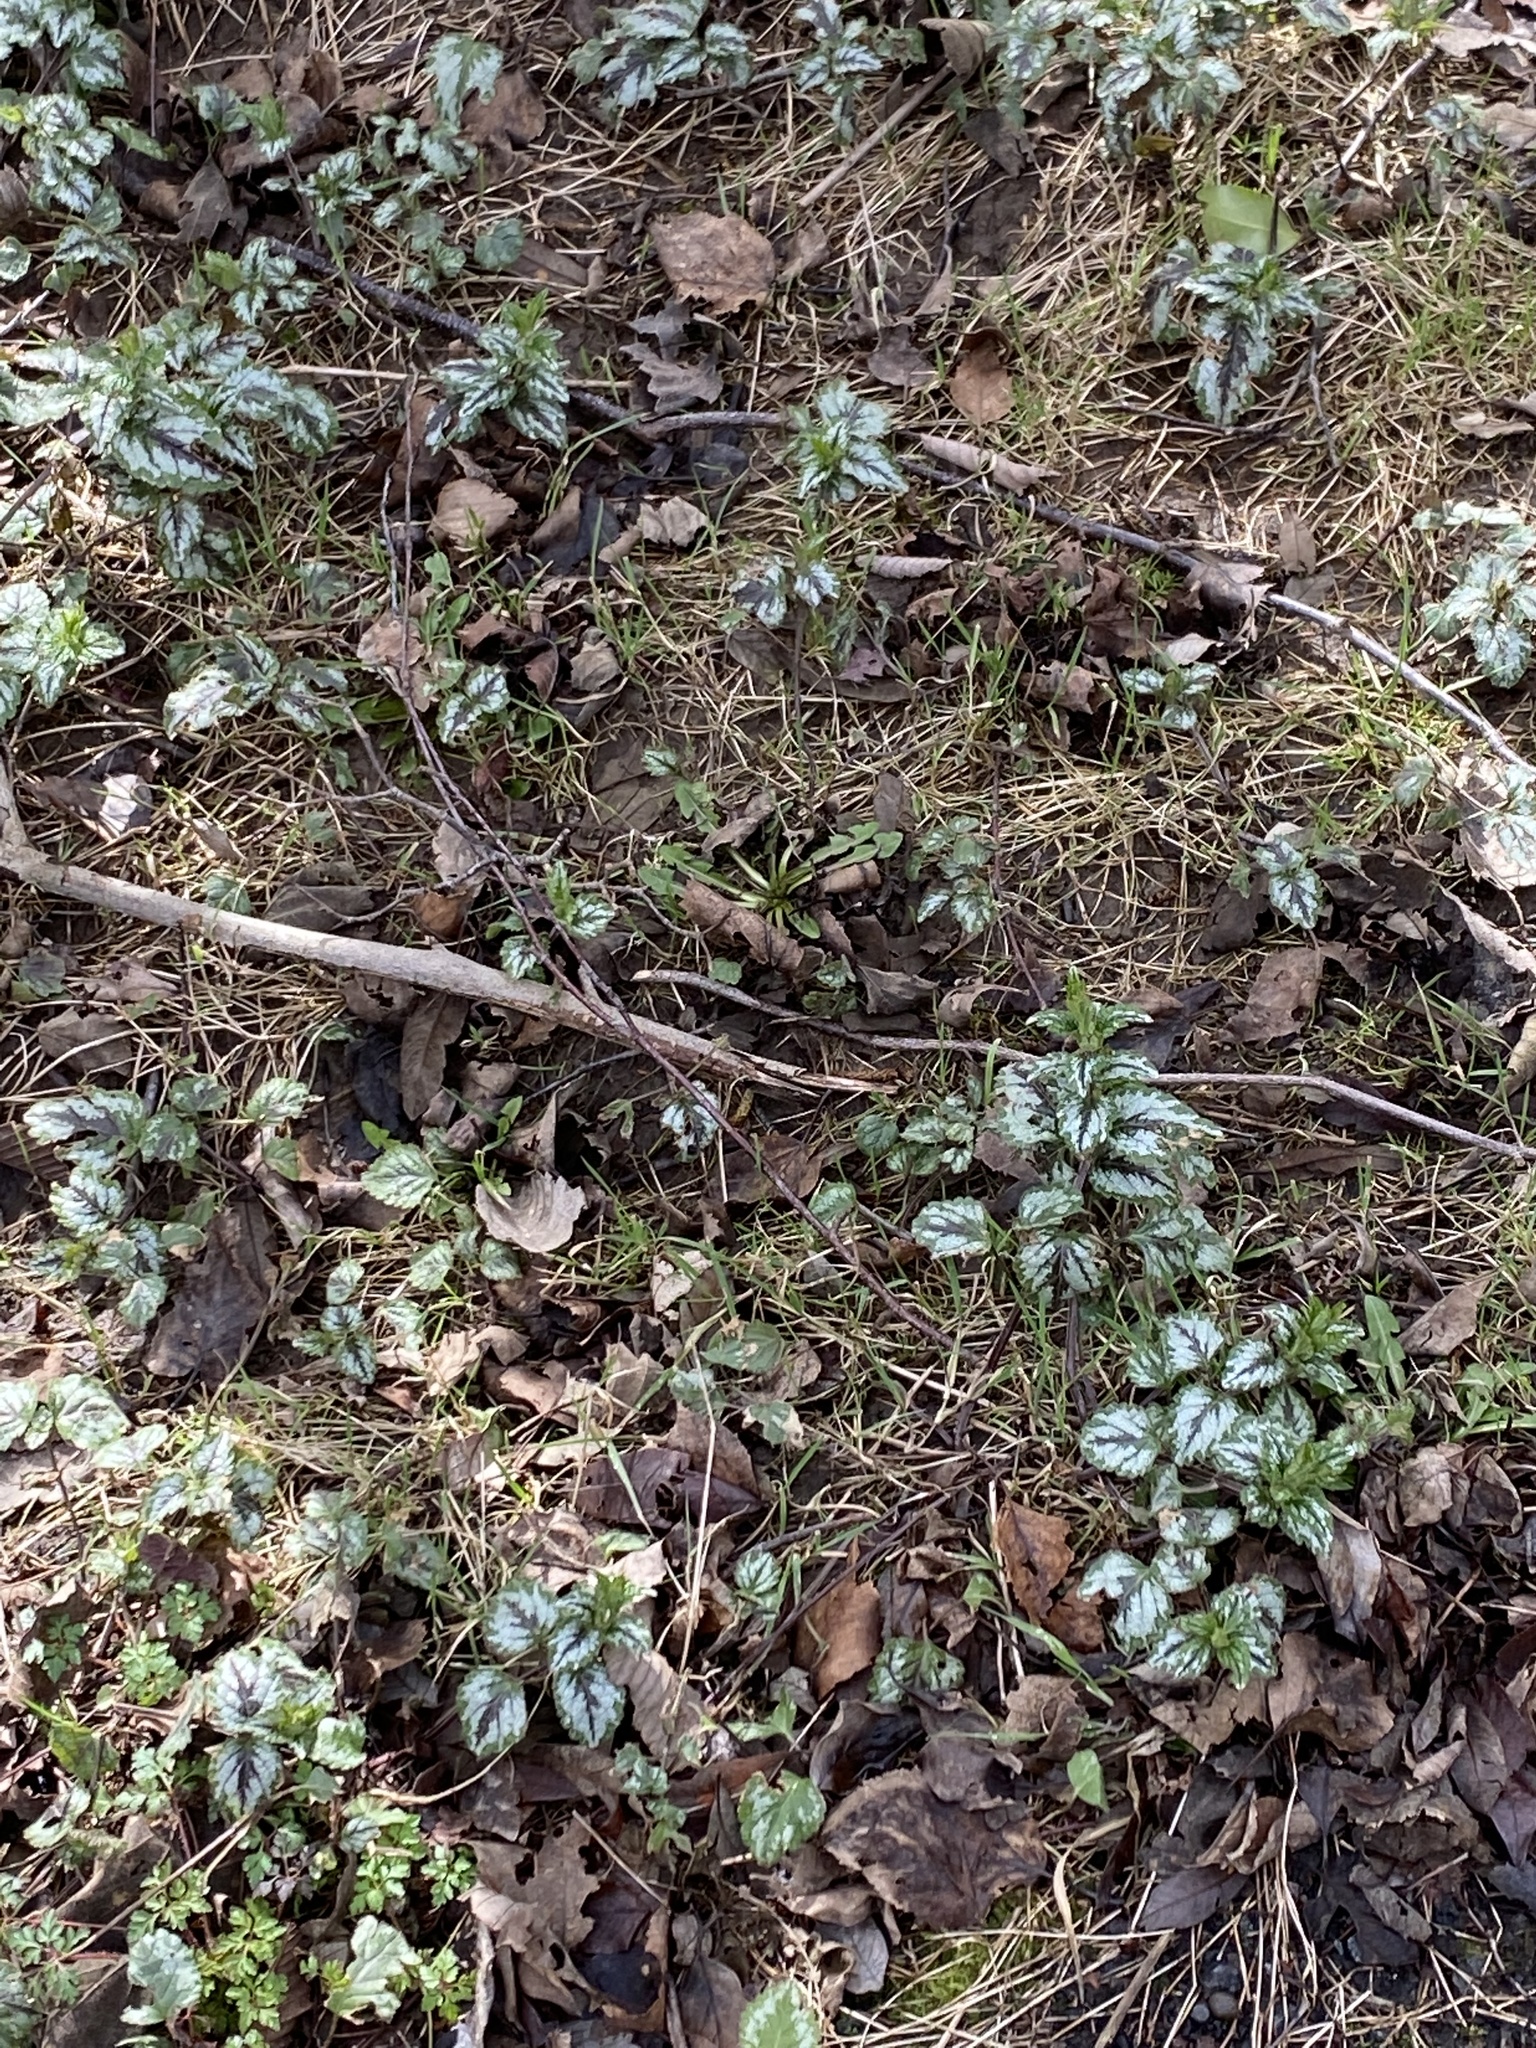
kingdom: Plantae
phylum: Tracheophyta
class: Magnoliopsida
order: Lamiales
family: Lamiaceae
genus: Lamium
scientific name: Lamium galeobdolon
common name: Yellow archangel
